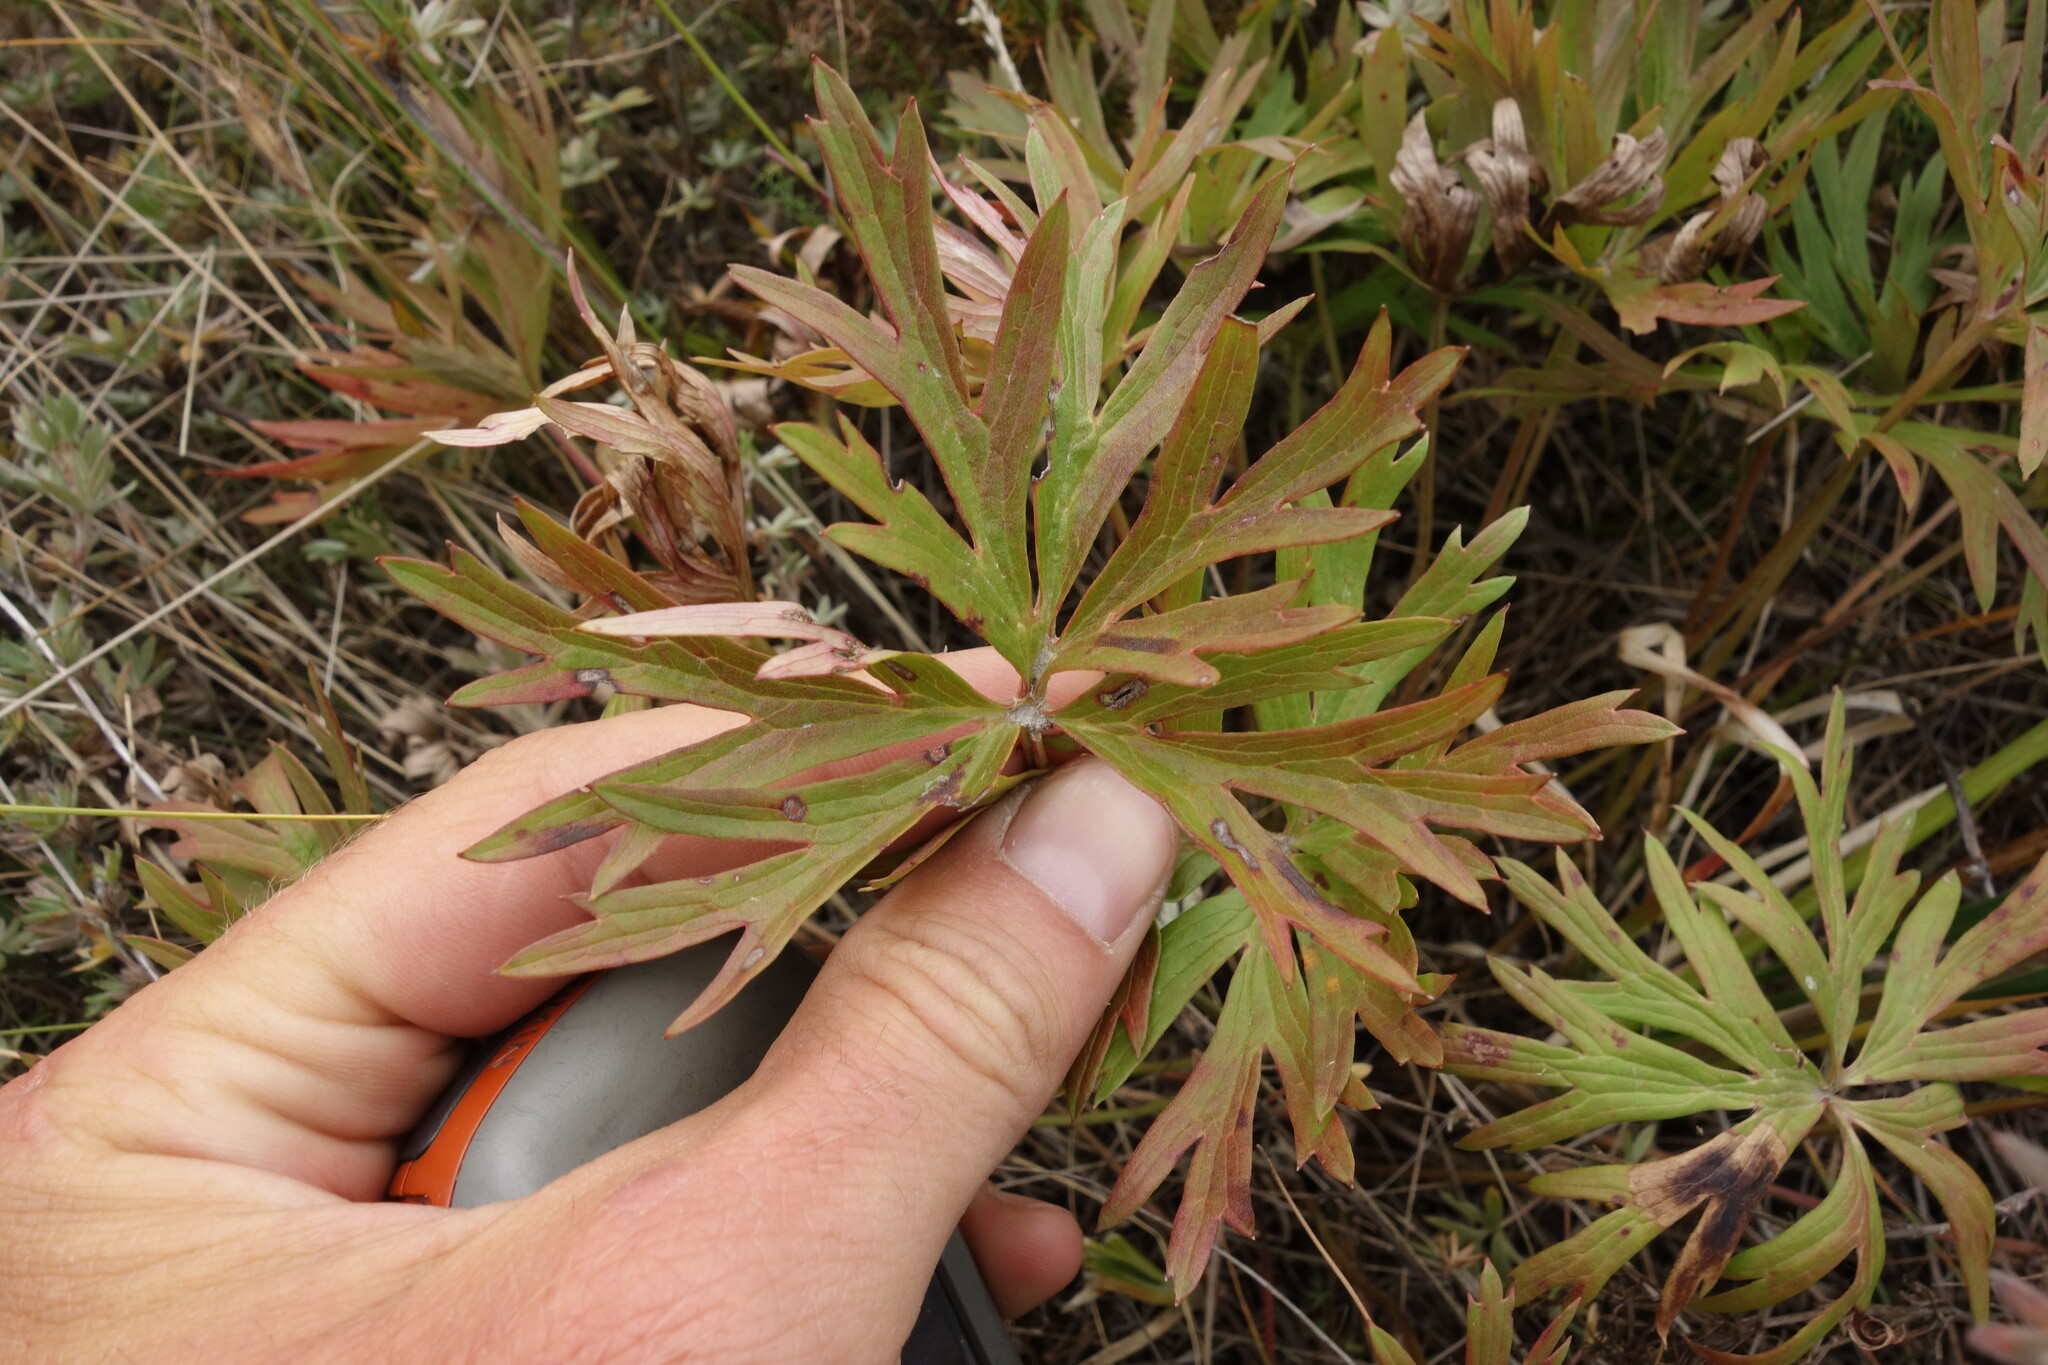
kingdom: Plantae
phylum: Tracheophyta
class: Magnoliopsida
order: Ranunculales
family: Ranunculaceae
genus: Pulsatilla
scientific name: Pulsatilla patens
